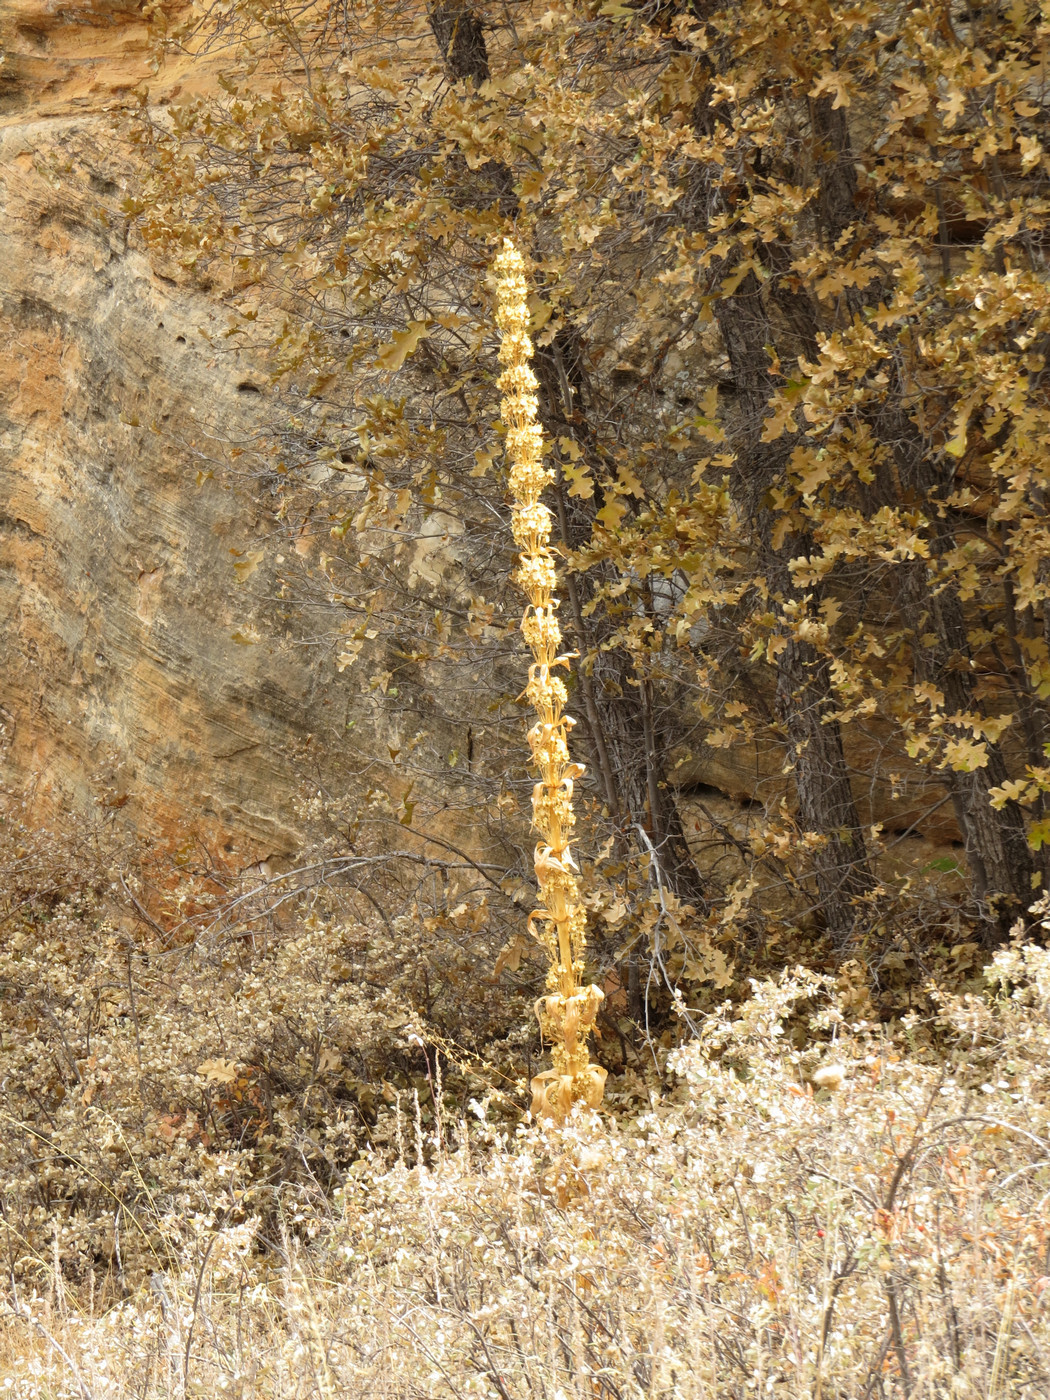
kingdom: Plantae
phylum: Tracheophyta
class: Magnoliopsida
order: Gentianales
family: Gentianaceae
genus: Frasera
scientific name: Frasera speciosa
